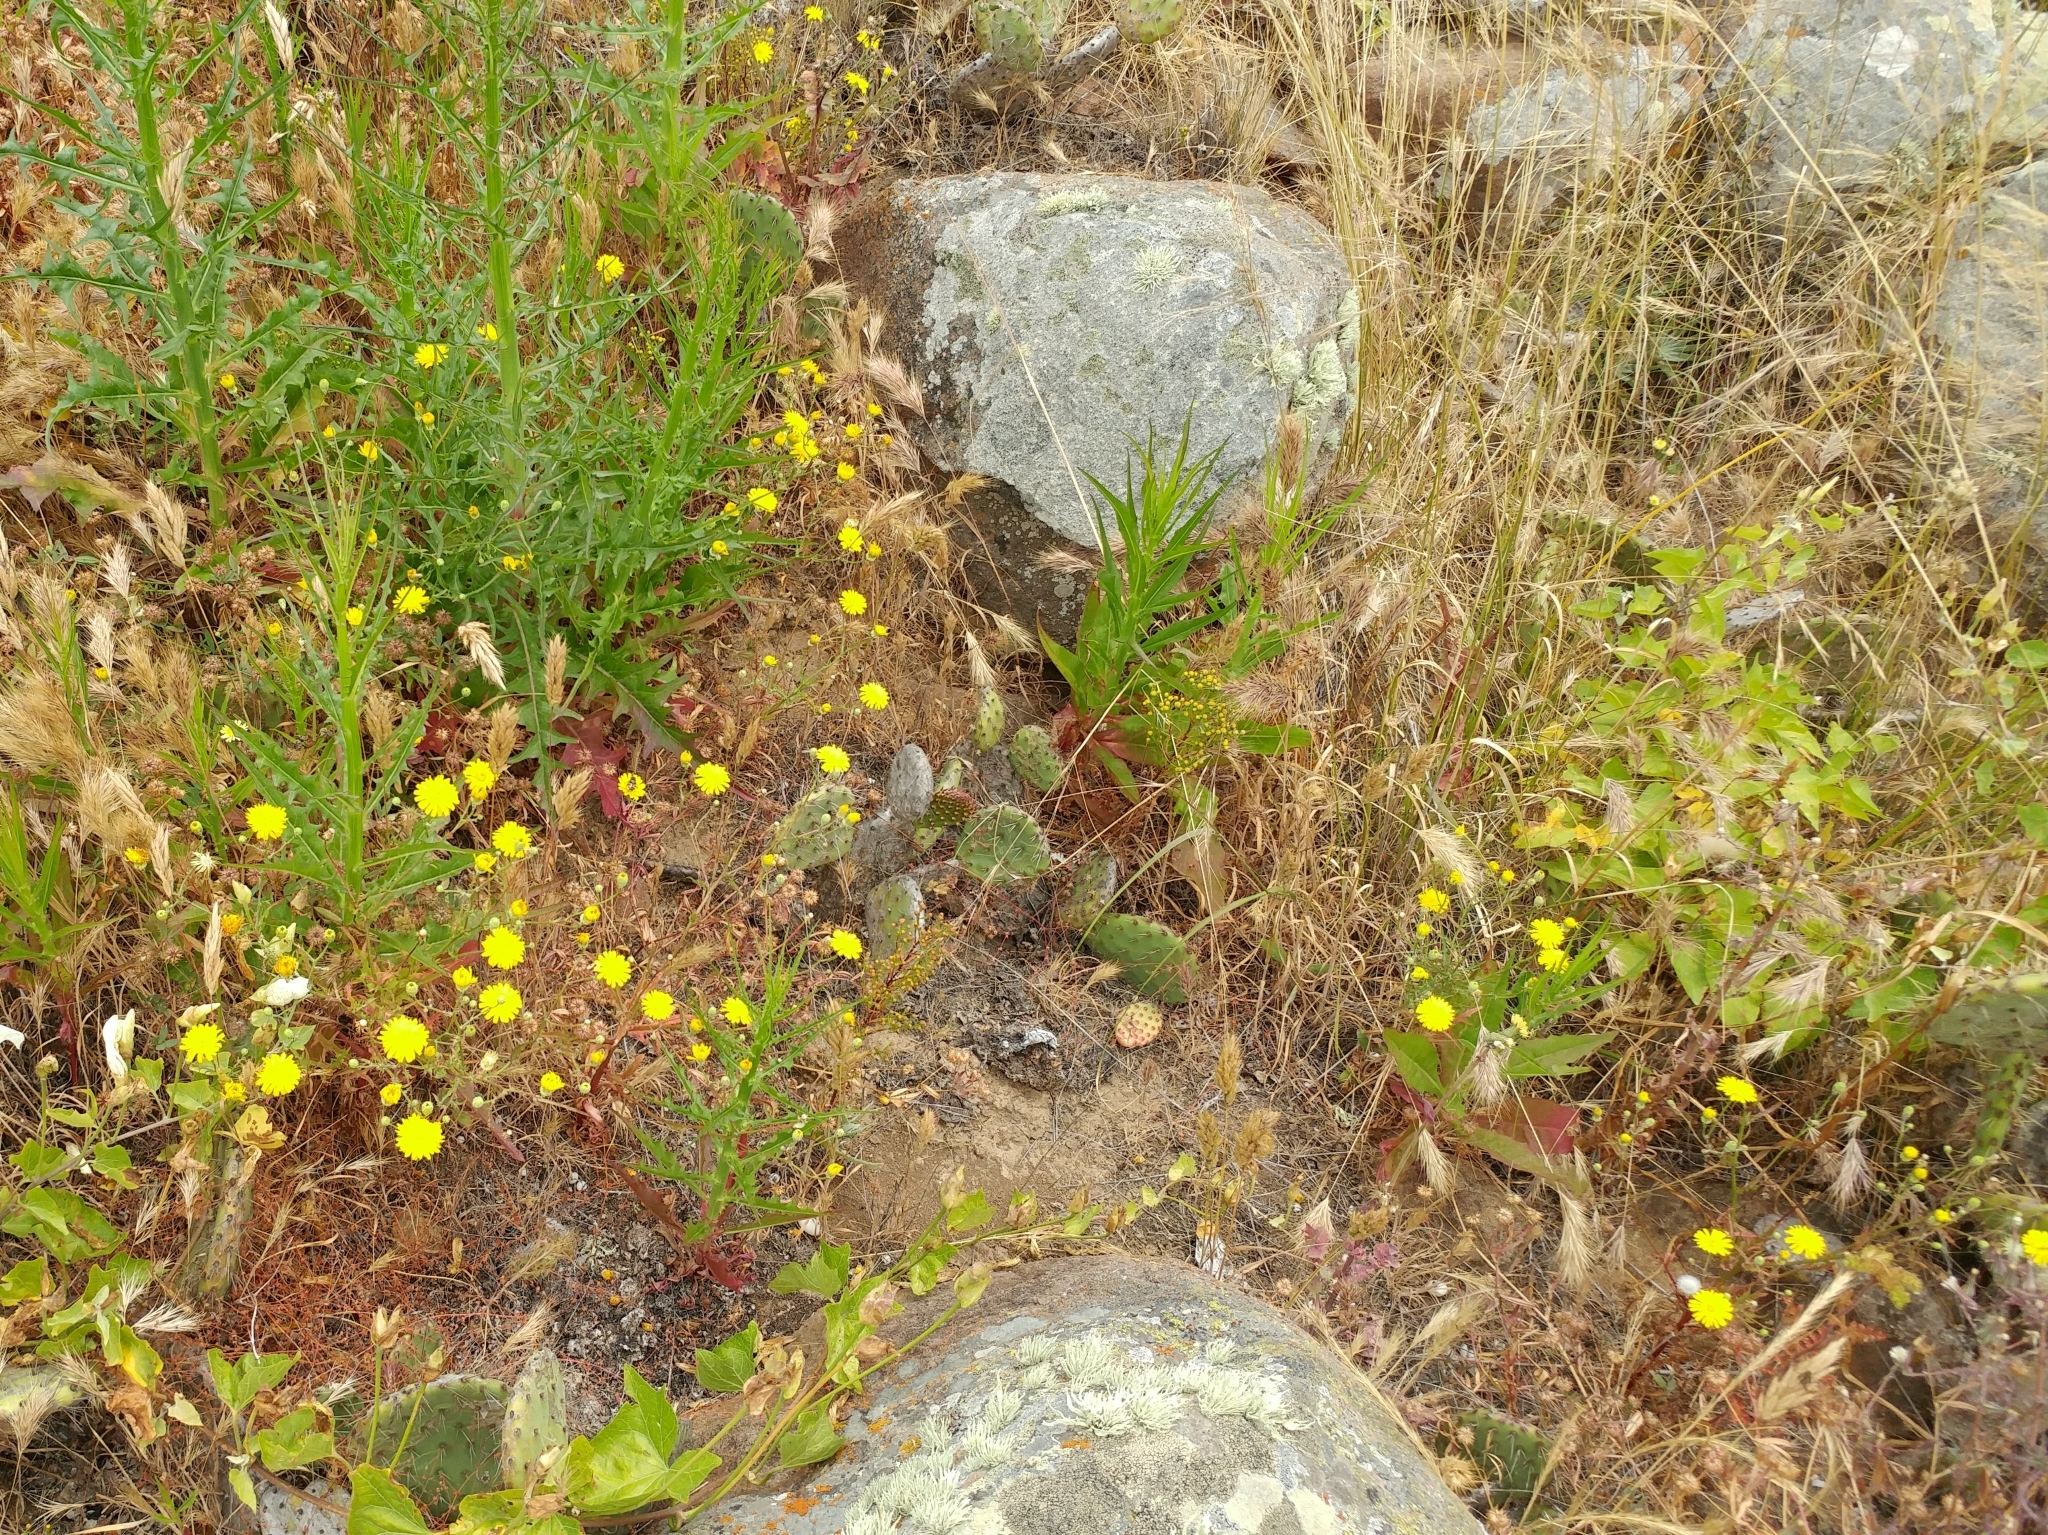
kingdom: Plantae
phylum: Tracheophyta
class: Magnoliopsida
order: Asterales
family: Asteraceae
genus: Malacothrix
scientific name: Malacothrix foliosa
